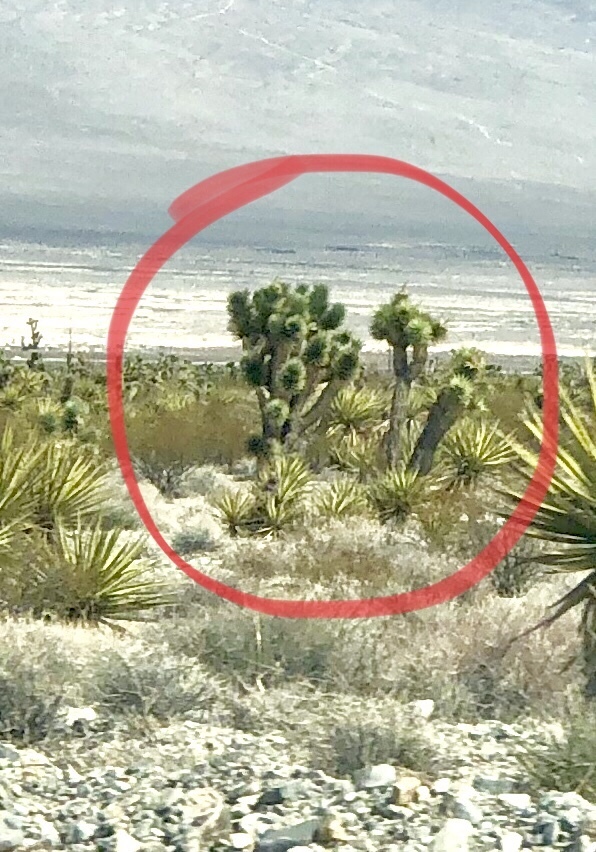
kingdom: Plantae
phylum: Tracheophyta
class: Liliopsida
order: Asparagales
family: Asparagaceae
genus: Yucca
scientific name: Yucca brevifolia
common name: Joshua tree
